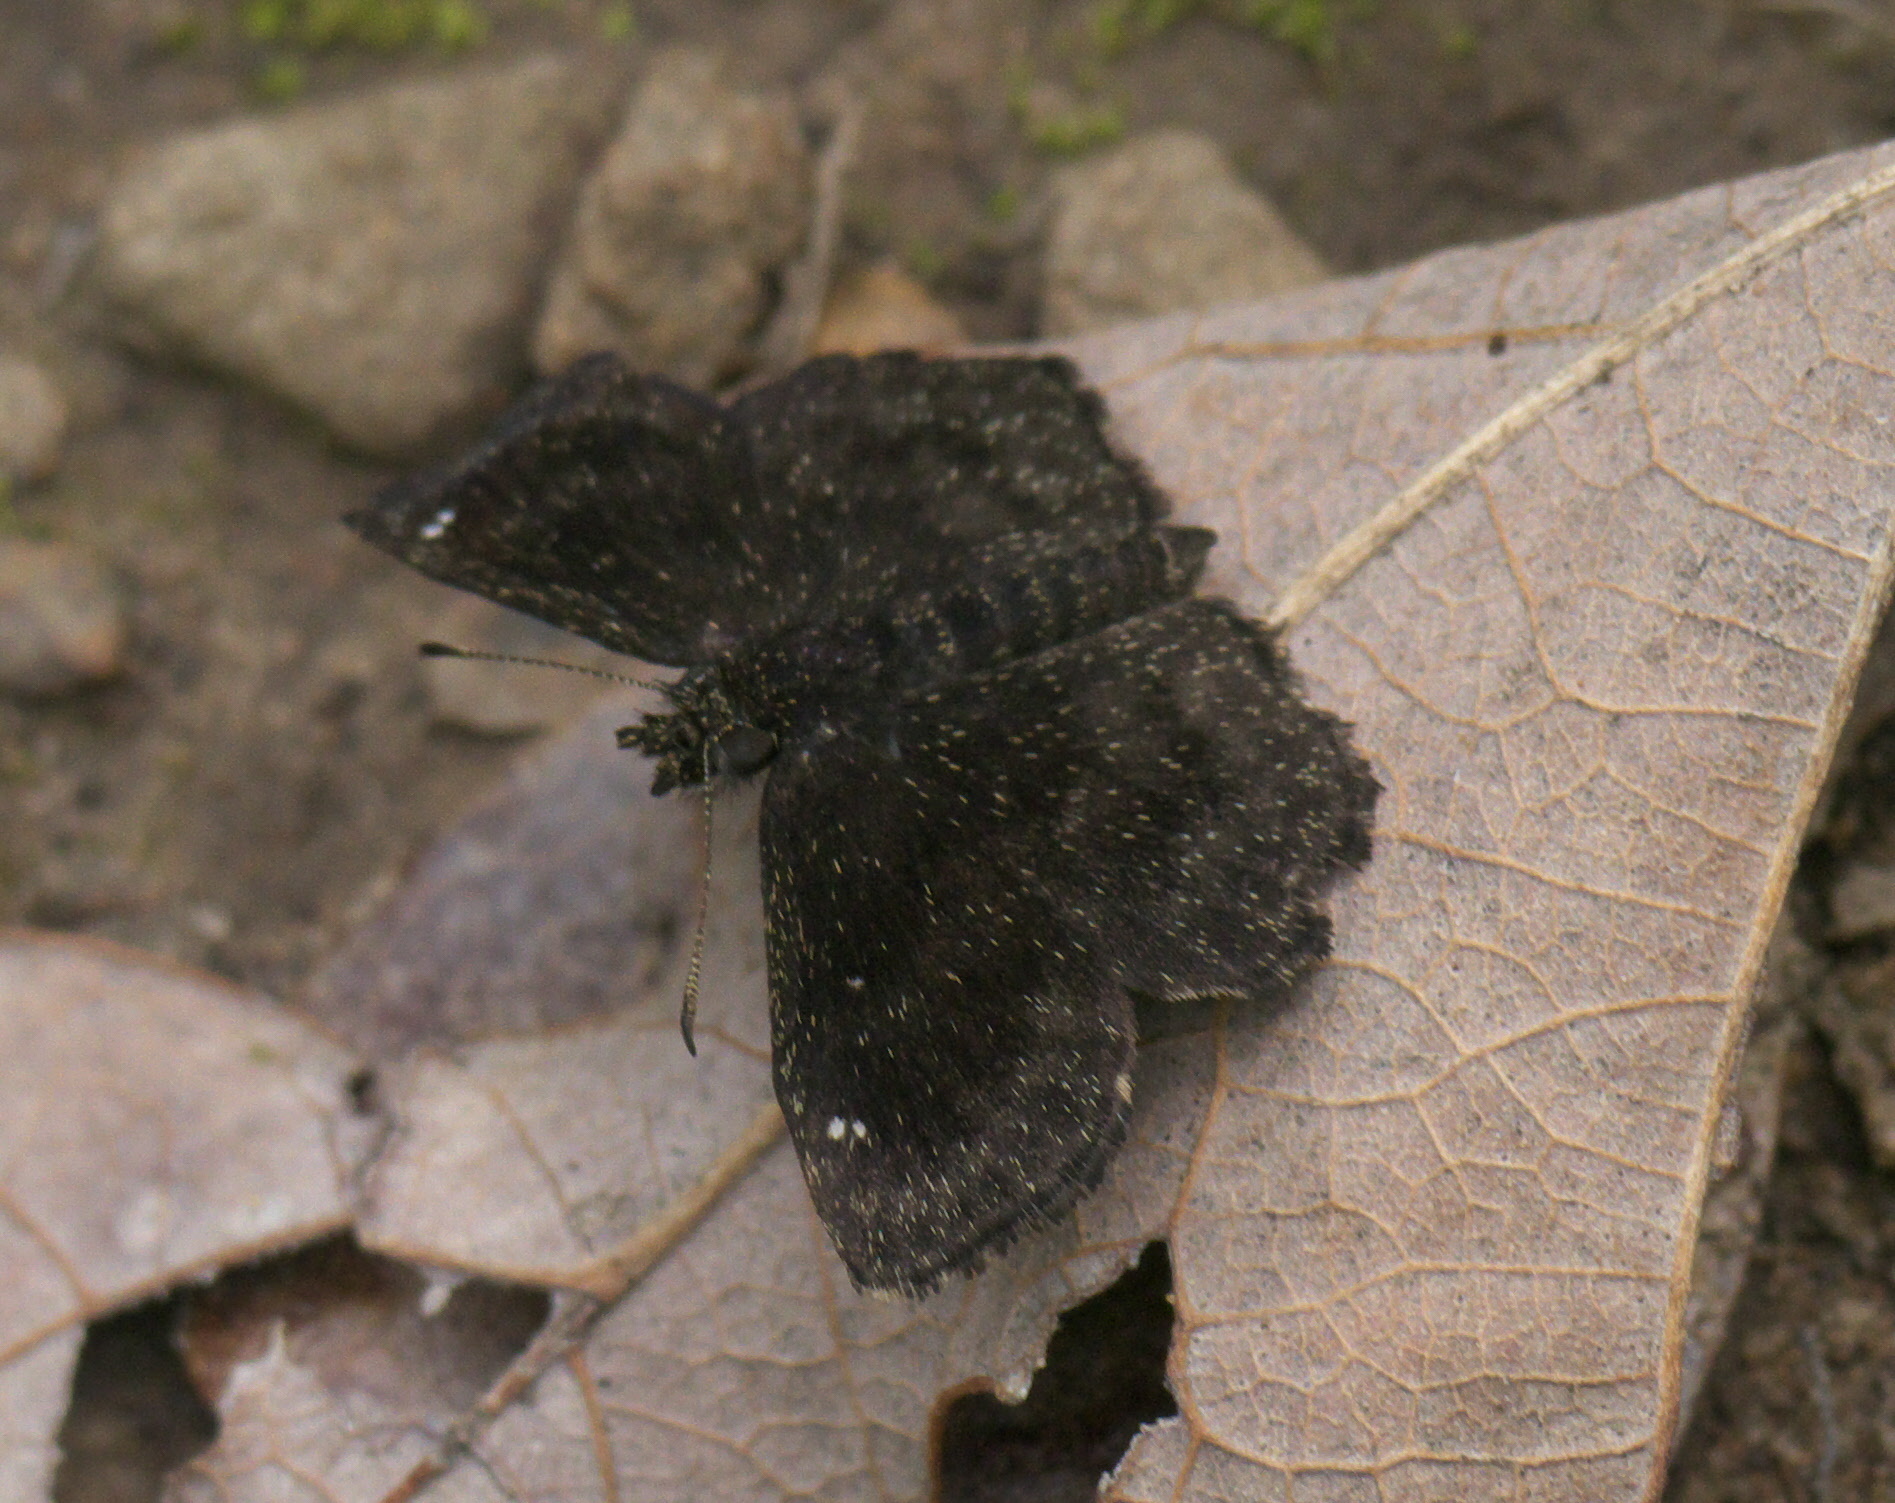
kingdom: Animalia
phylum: Arthropoda
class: Insecta
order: Lepidoptera
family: Hesperiidae
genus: Staphylus
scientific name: Staphylus mazans
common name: Mazans scallopwing
